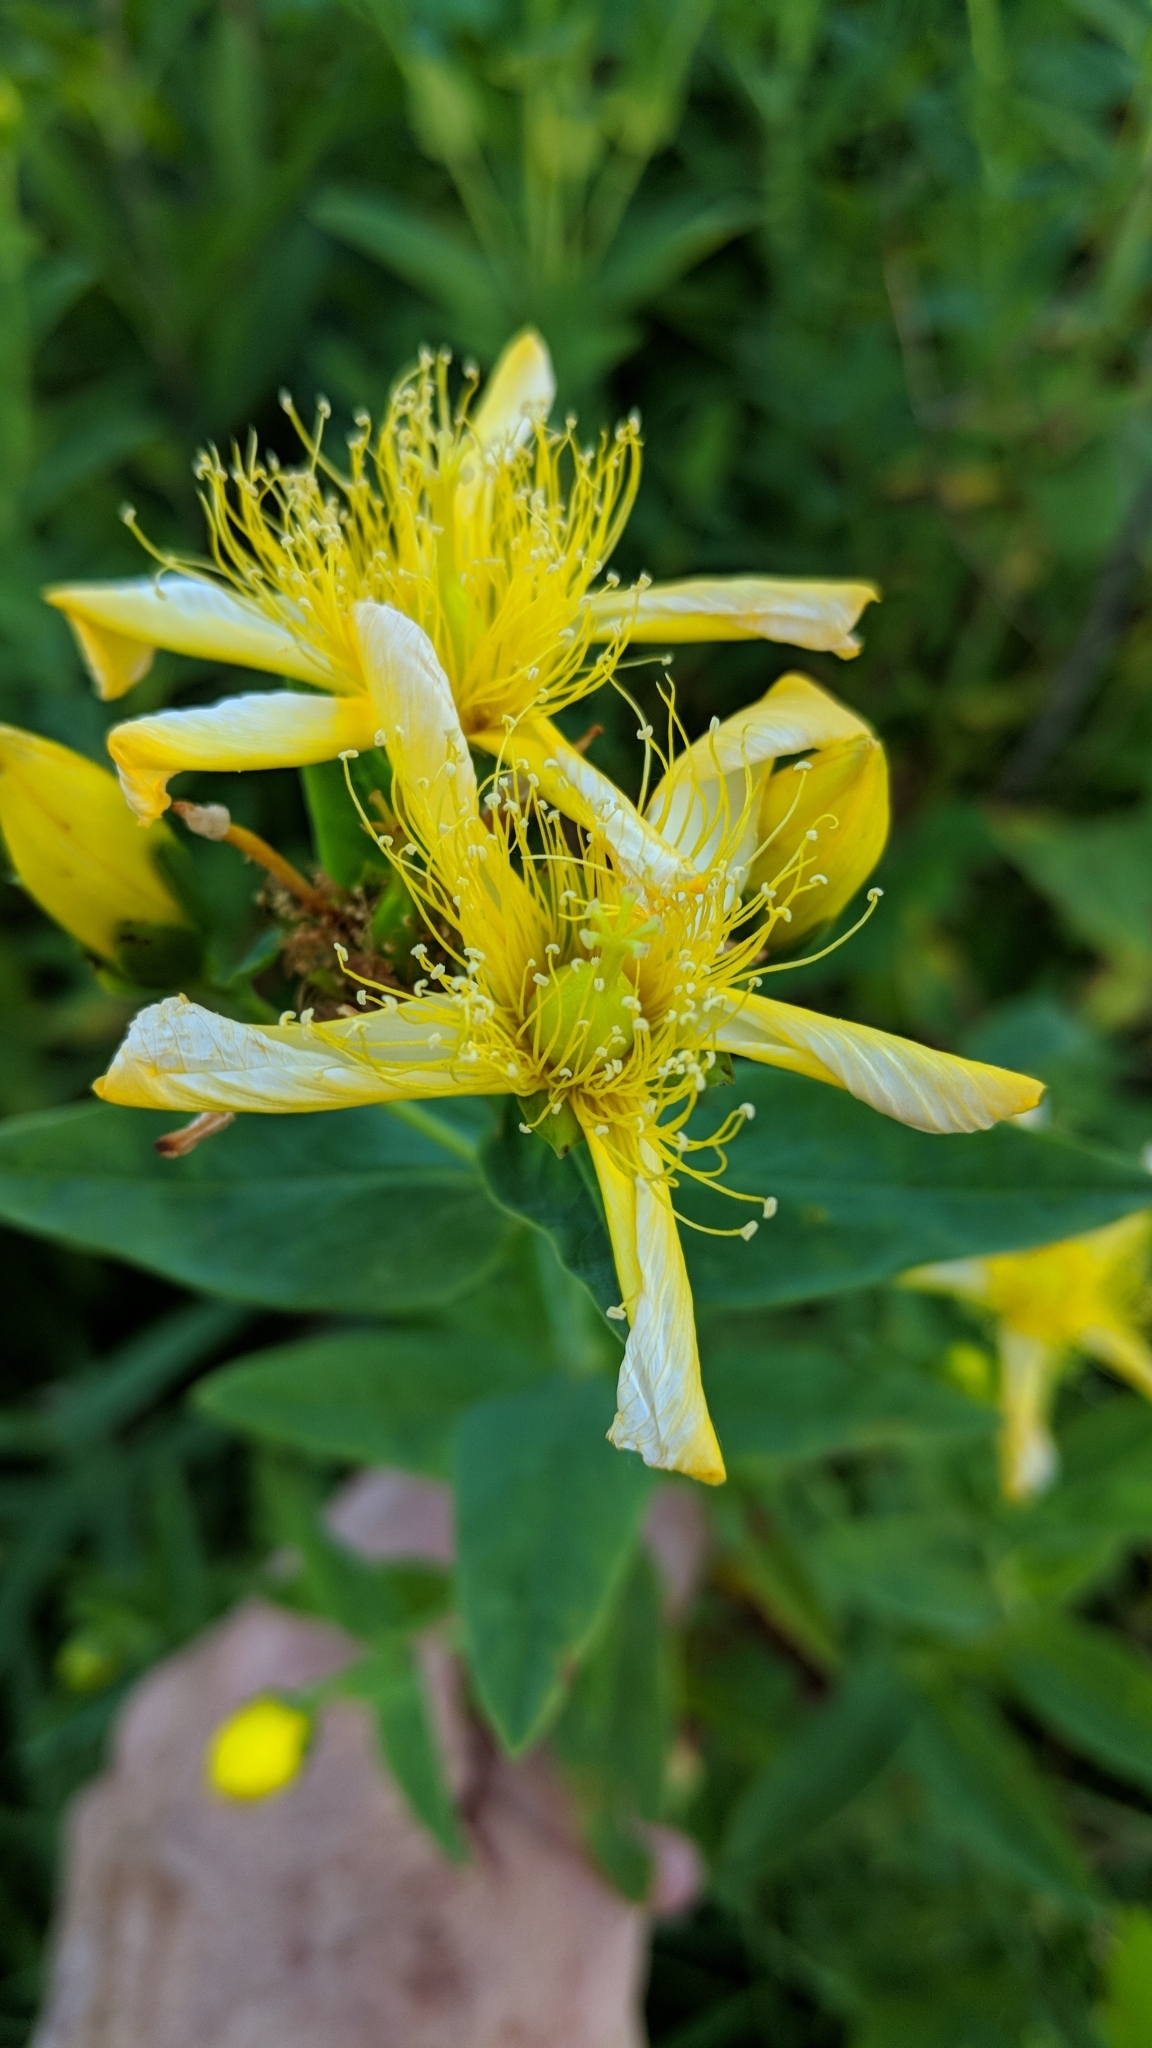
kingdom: Plantae
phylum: Tracheophyta
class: Magnoliopsida
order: Malpighiales
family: Hypericaceae
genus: Hypericum
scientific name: Hypericum ascyron
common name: Giant st. john's-wort
